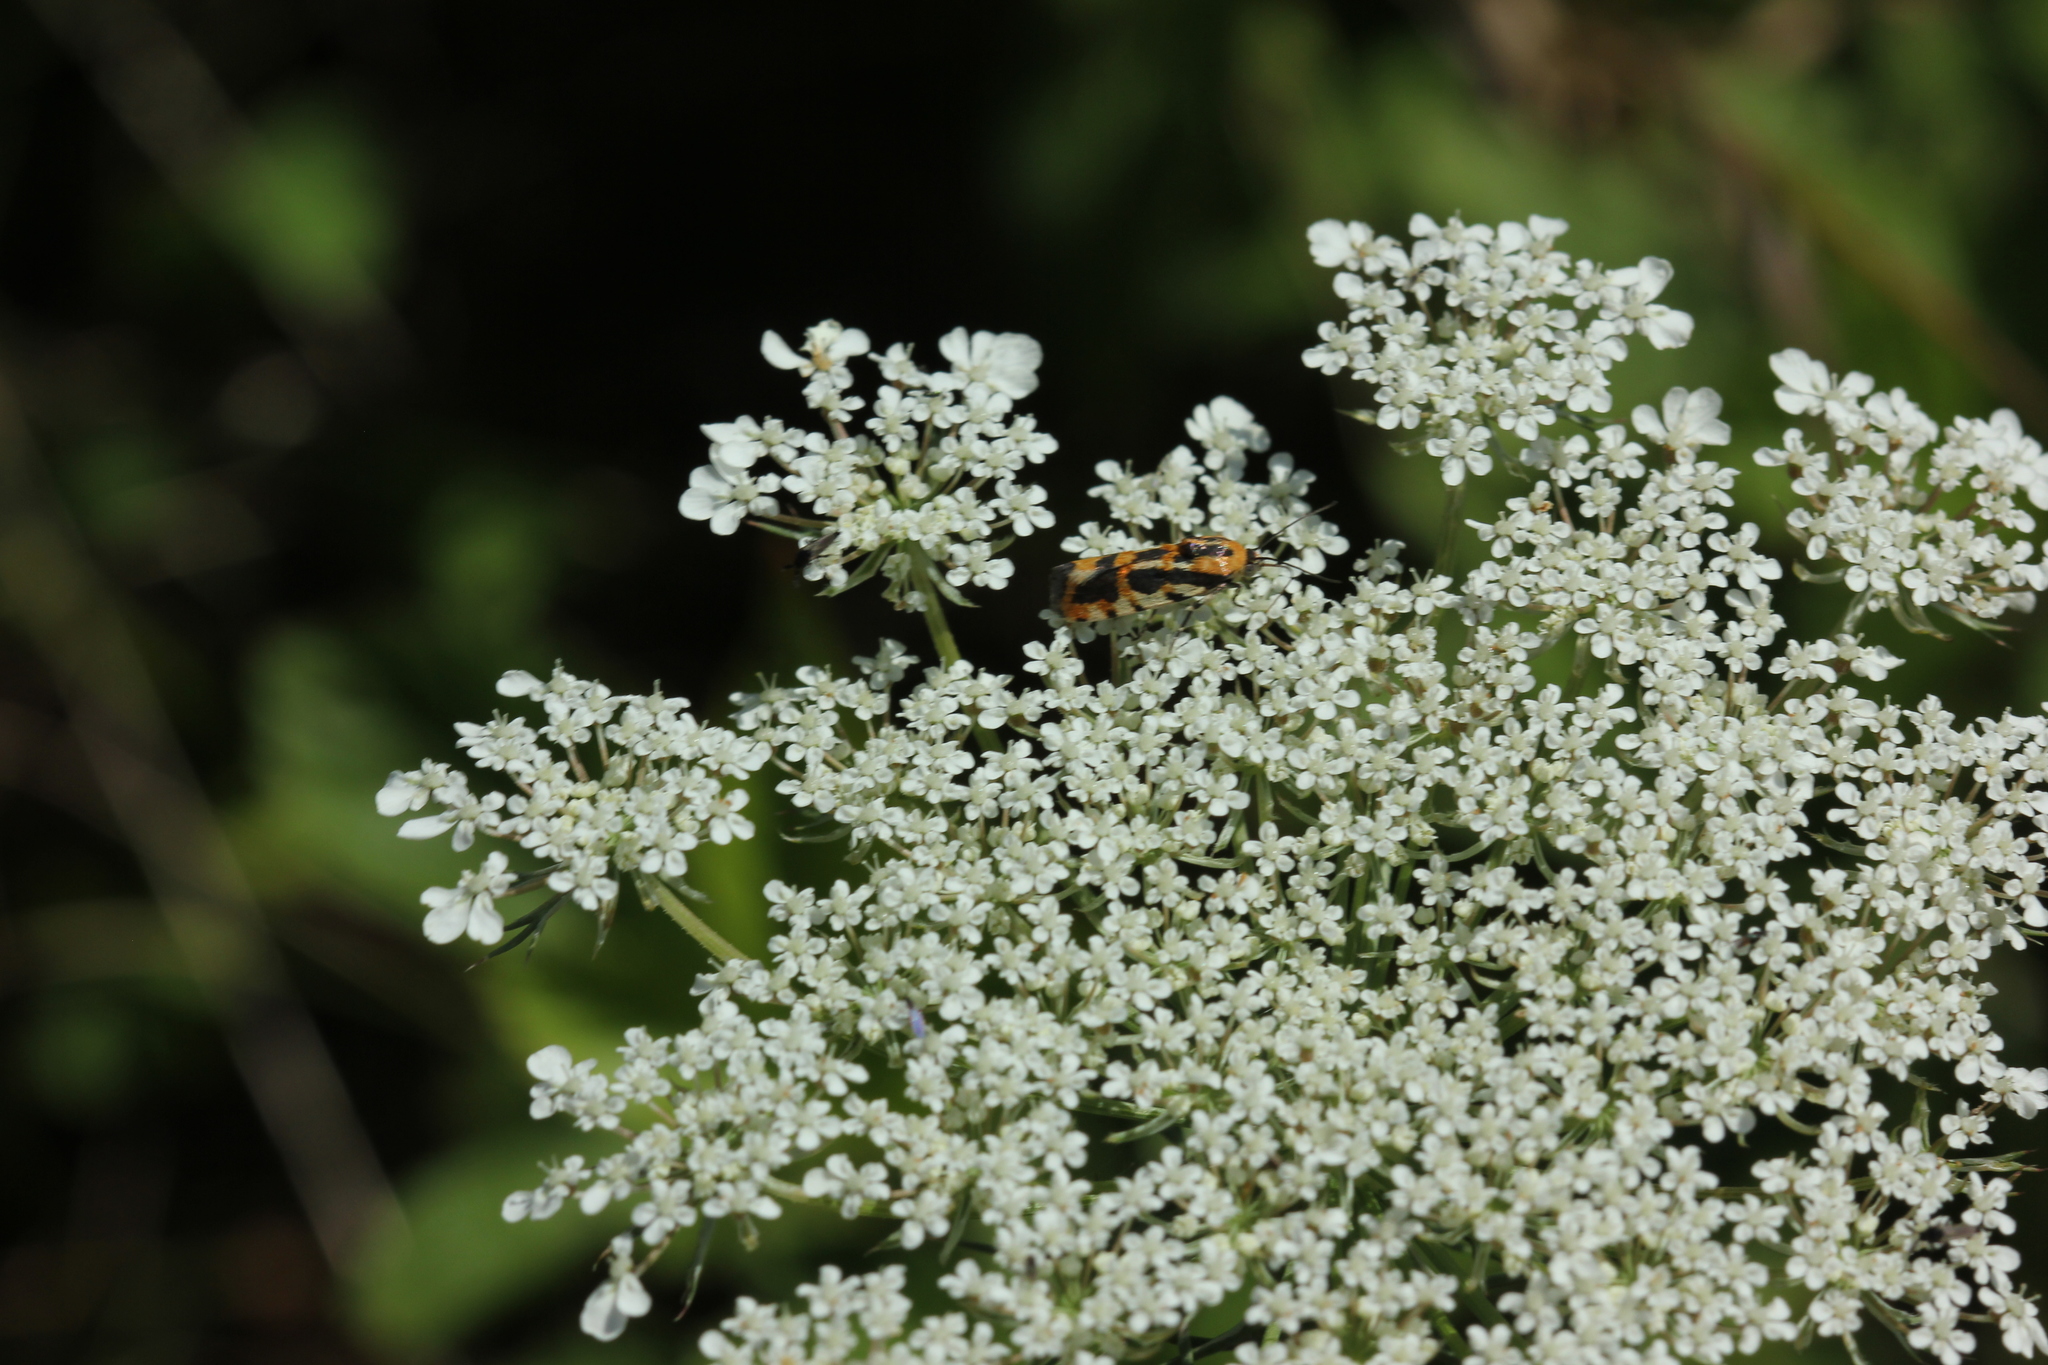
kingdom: Animalia
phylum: Arthropoda
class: Insecta
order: Lepidoptera
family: Noctuidae
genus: Acontia
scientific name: Acontia leo
